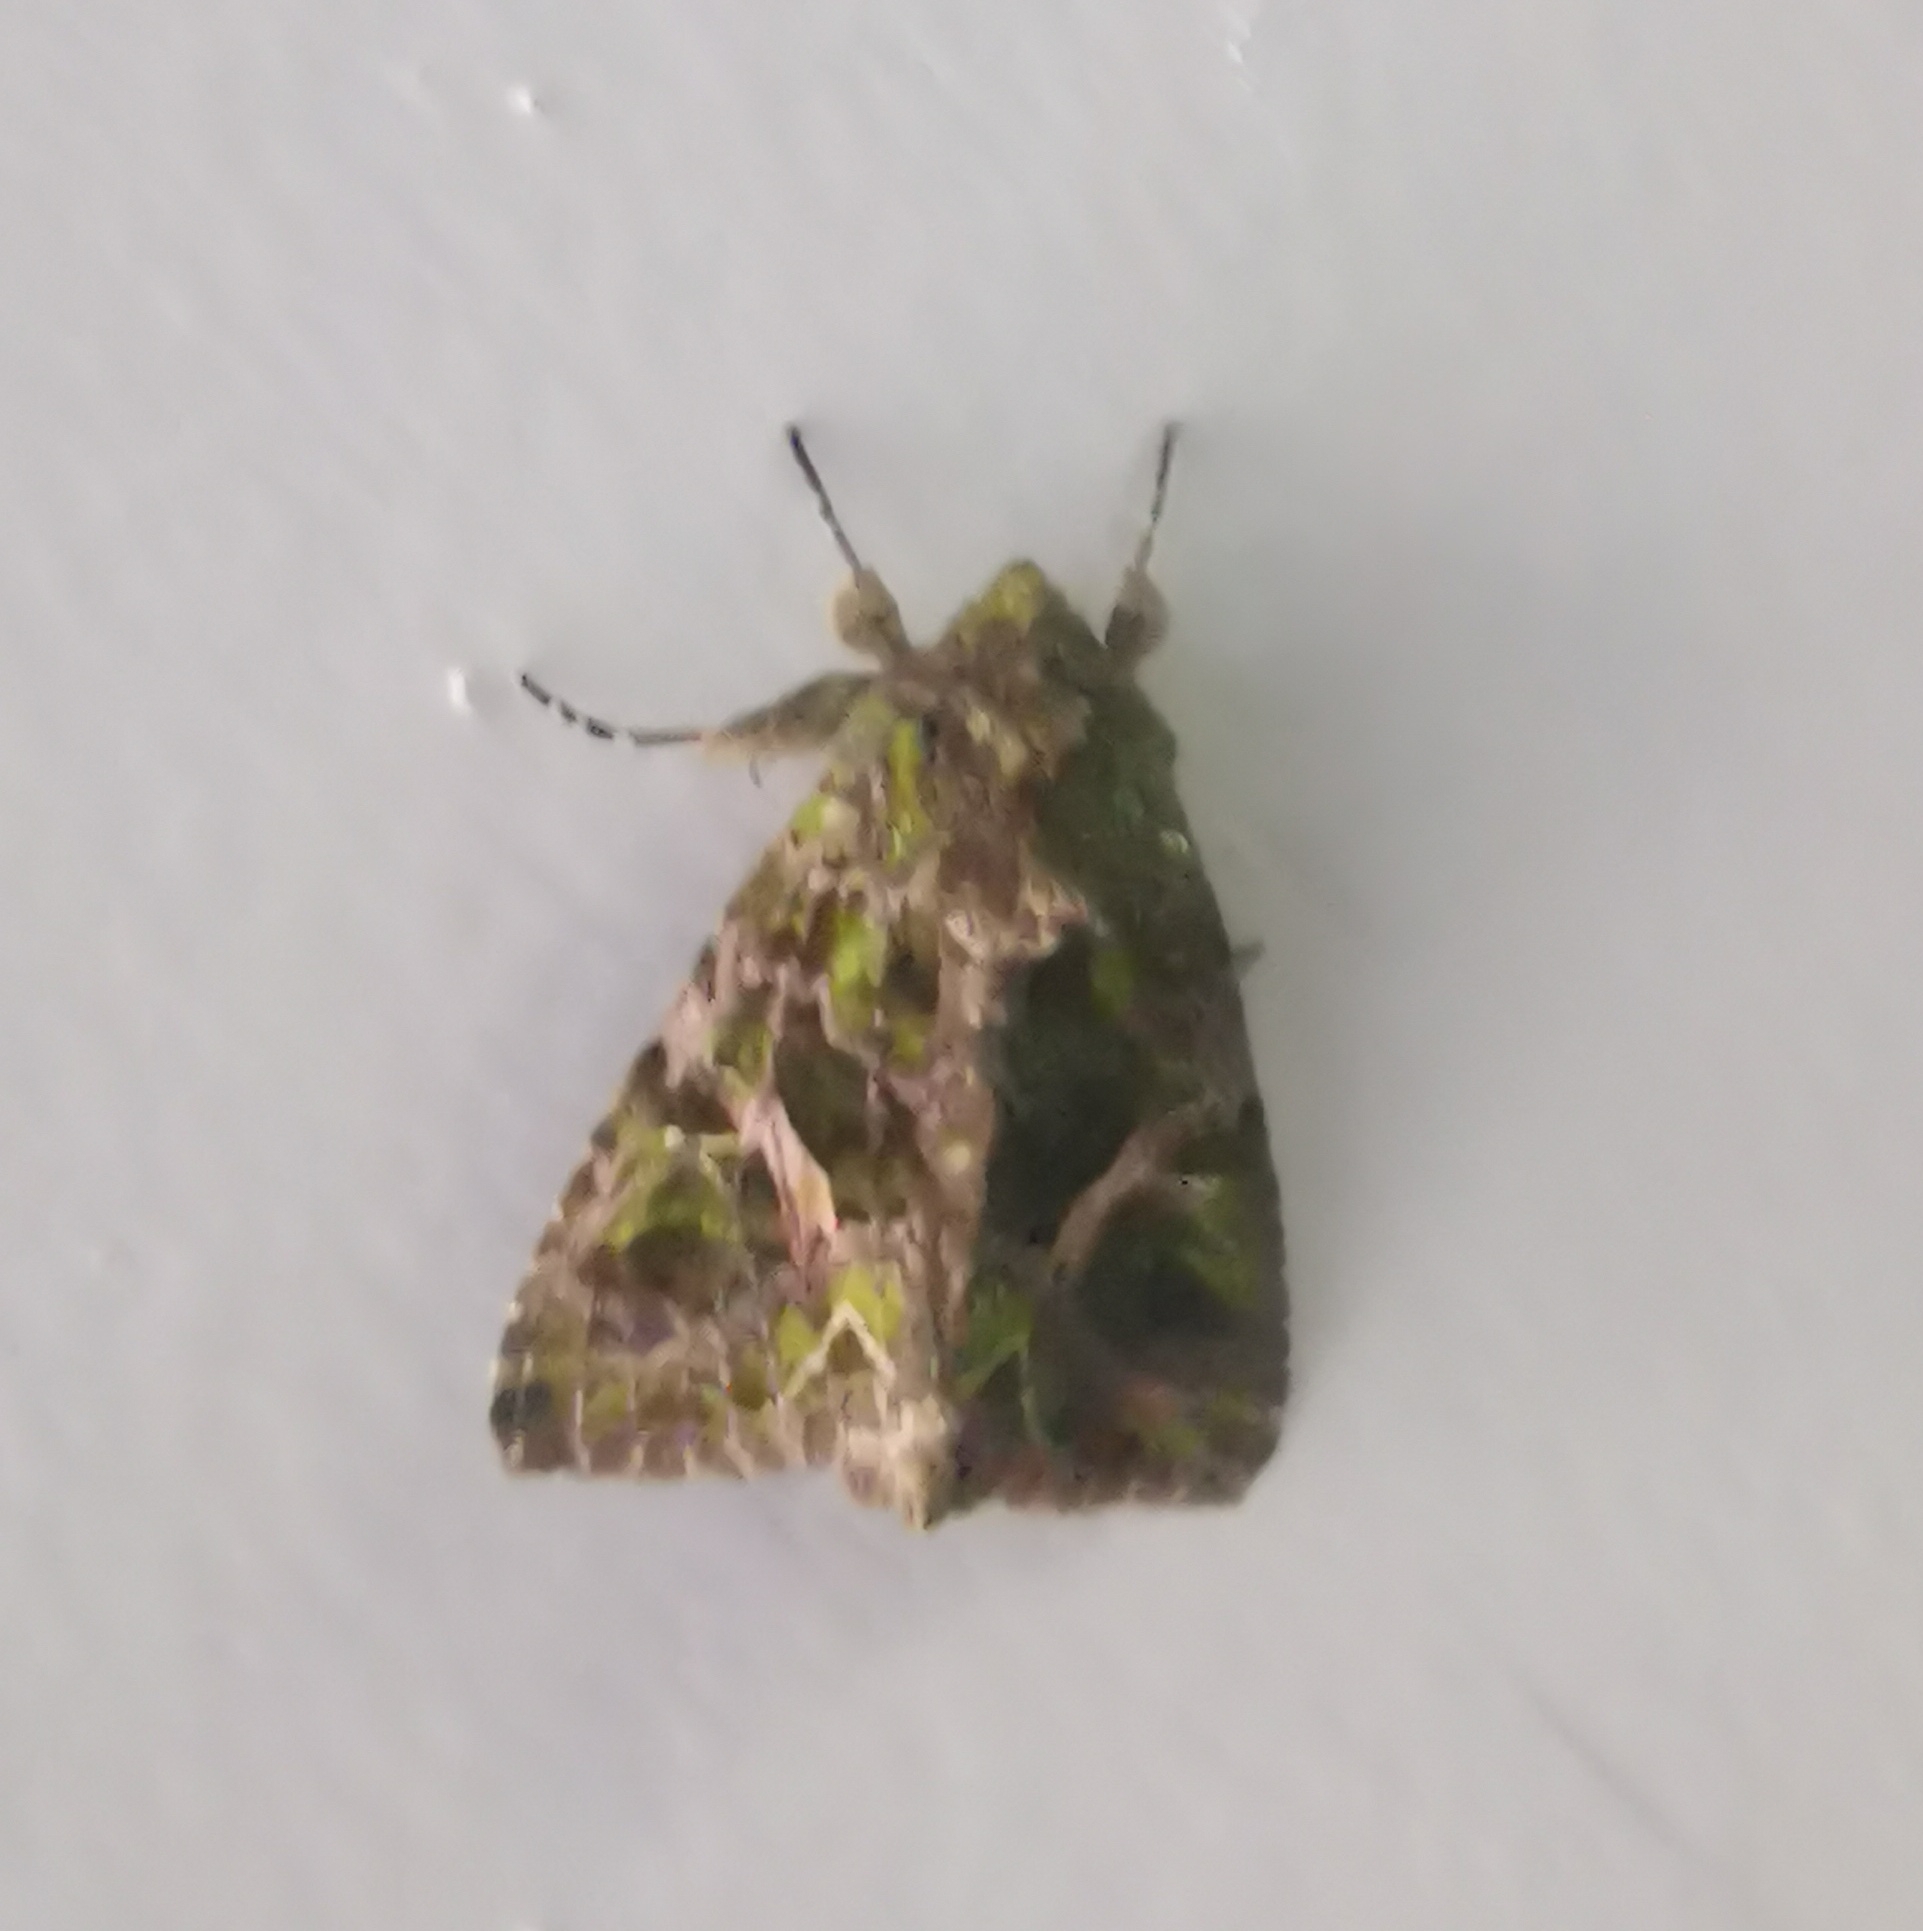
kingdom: Animalia
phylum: Arthropoda
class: Insecta
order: Lepidoptera
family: Noctuidae
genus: Trachea
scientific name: Trachea atriplicis
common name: Orache moth
